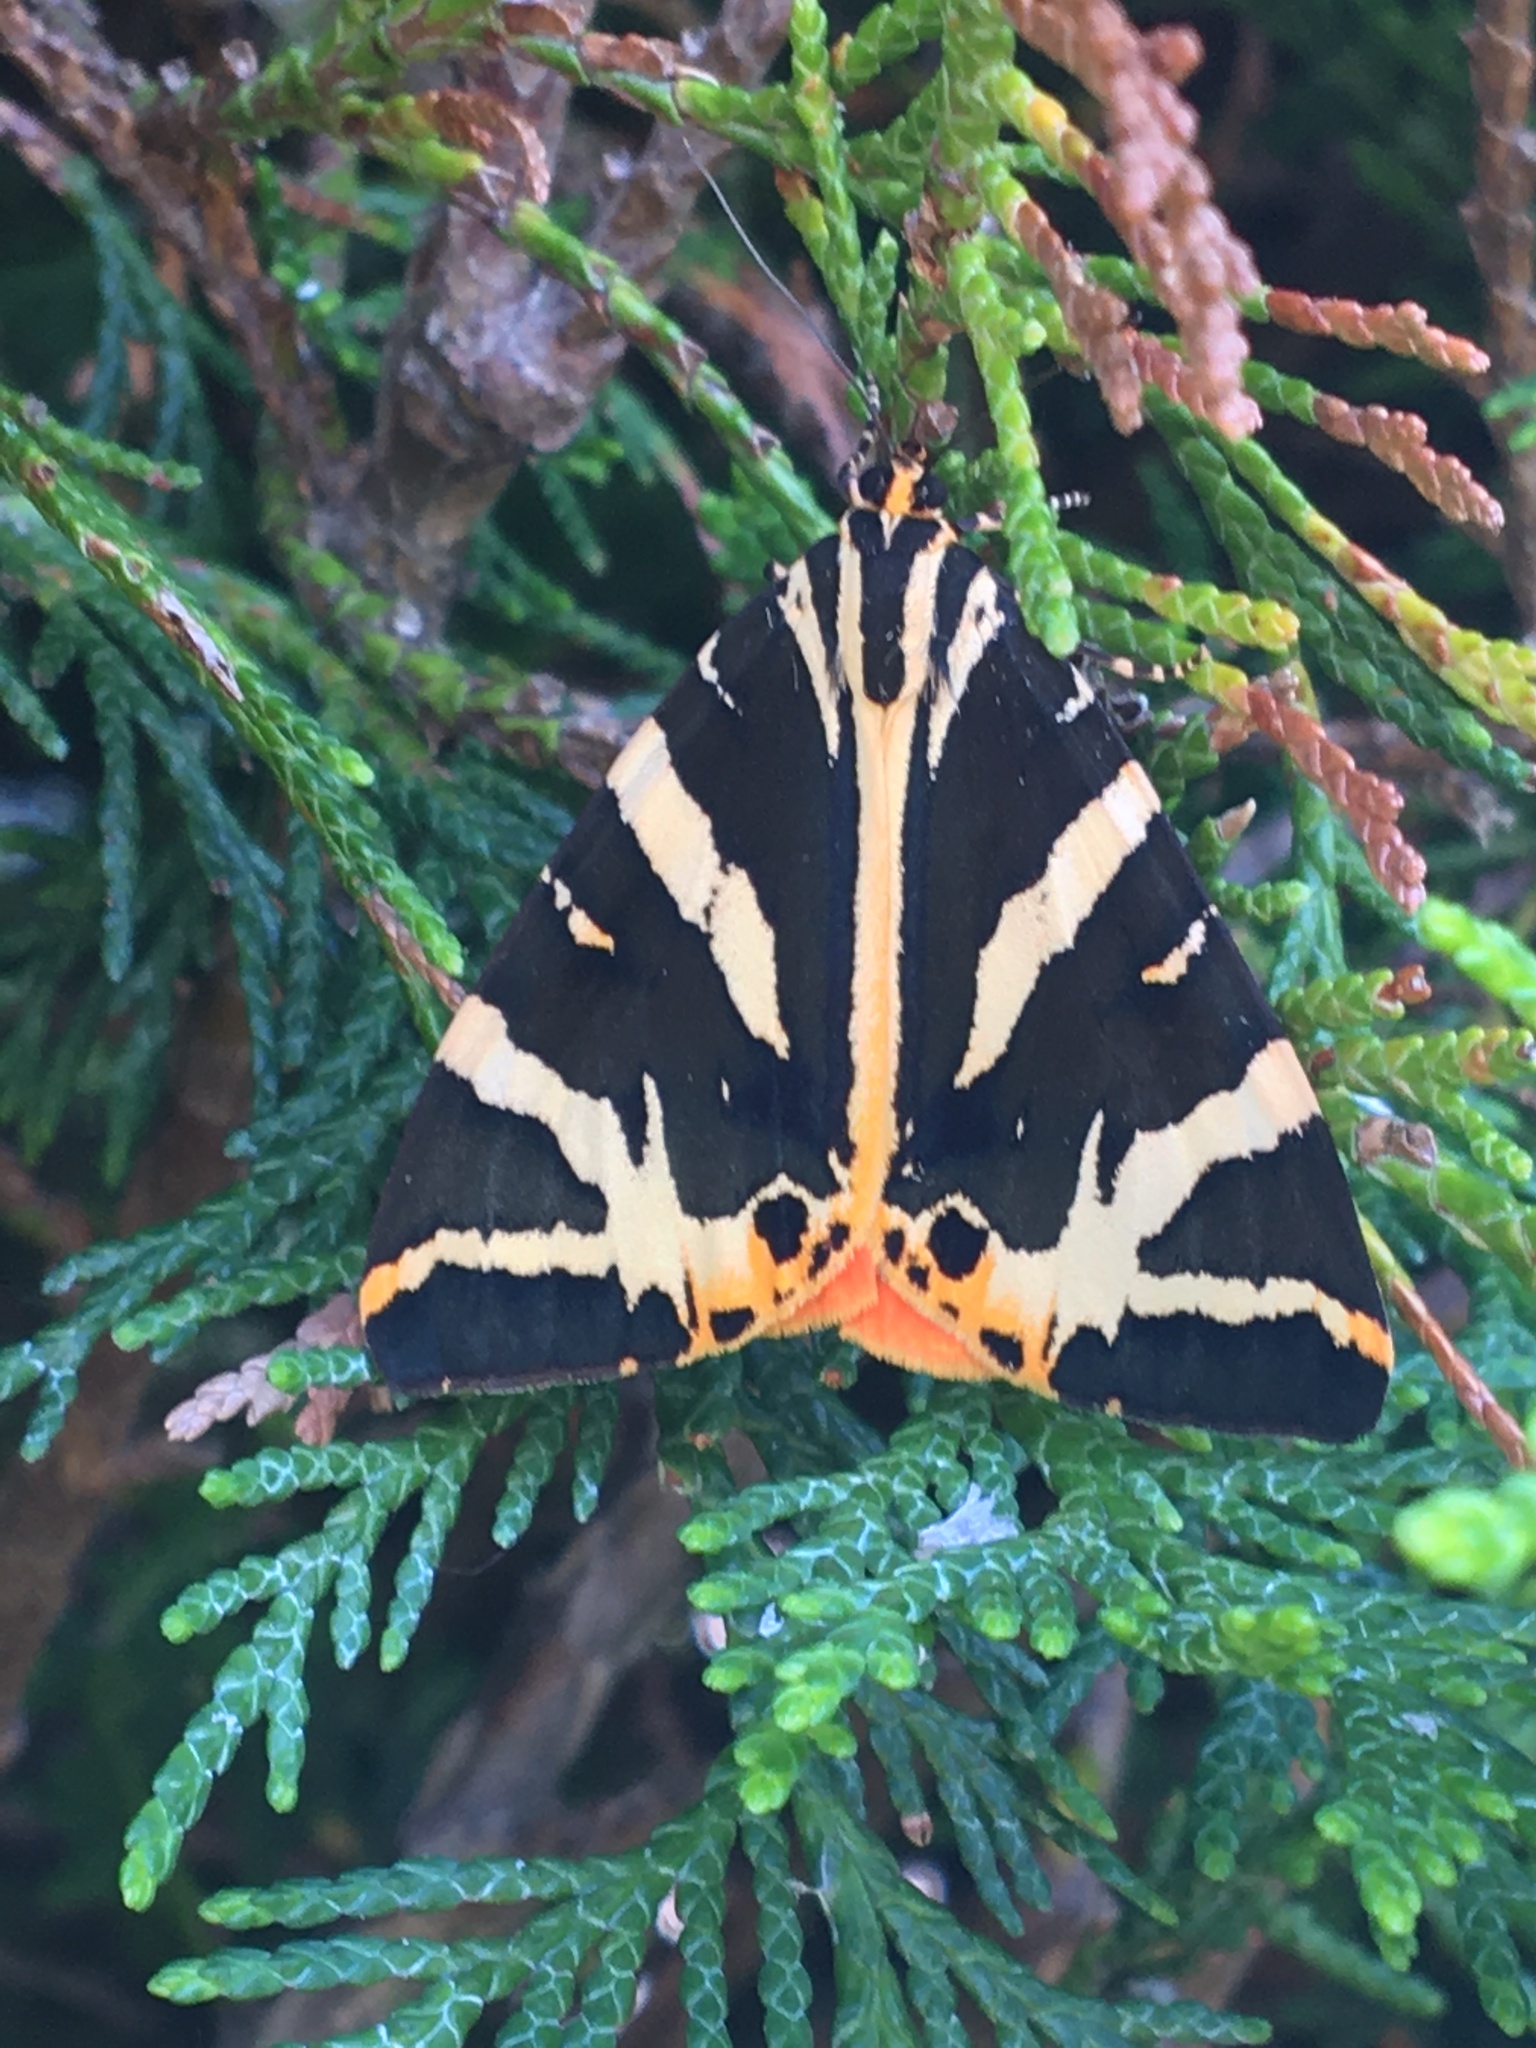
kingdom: Animalia
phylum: Arthropoda
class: Insecta
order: Lepidoptera
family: Erebidae
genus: Euplagia
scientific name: Euplagia quadripunctaria
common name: Jersey tiger
